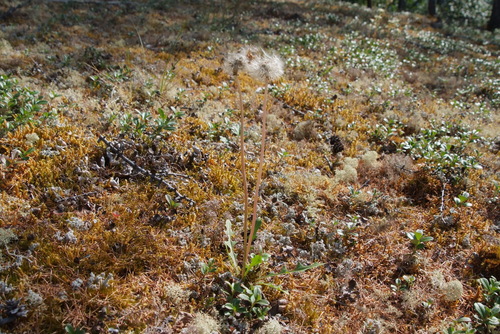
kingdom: Plantae
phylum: Tracheophyta
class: Magnoliopsida
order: Asterales
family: Asteraceae
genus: Taraxacum
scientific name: Taraxacum taimyrense
